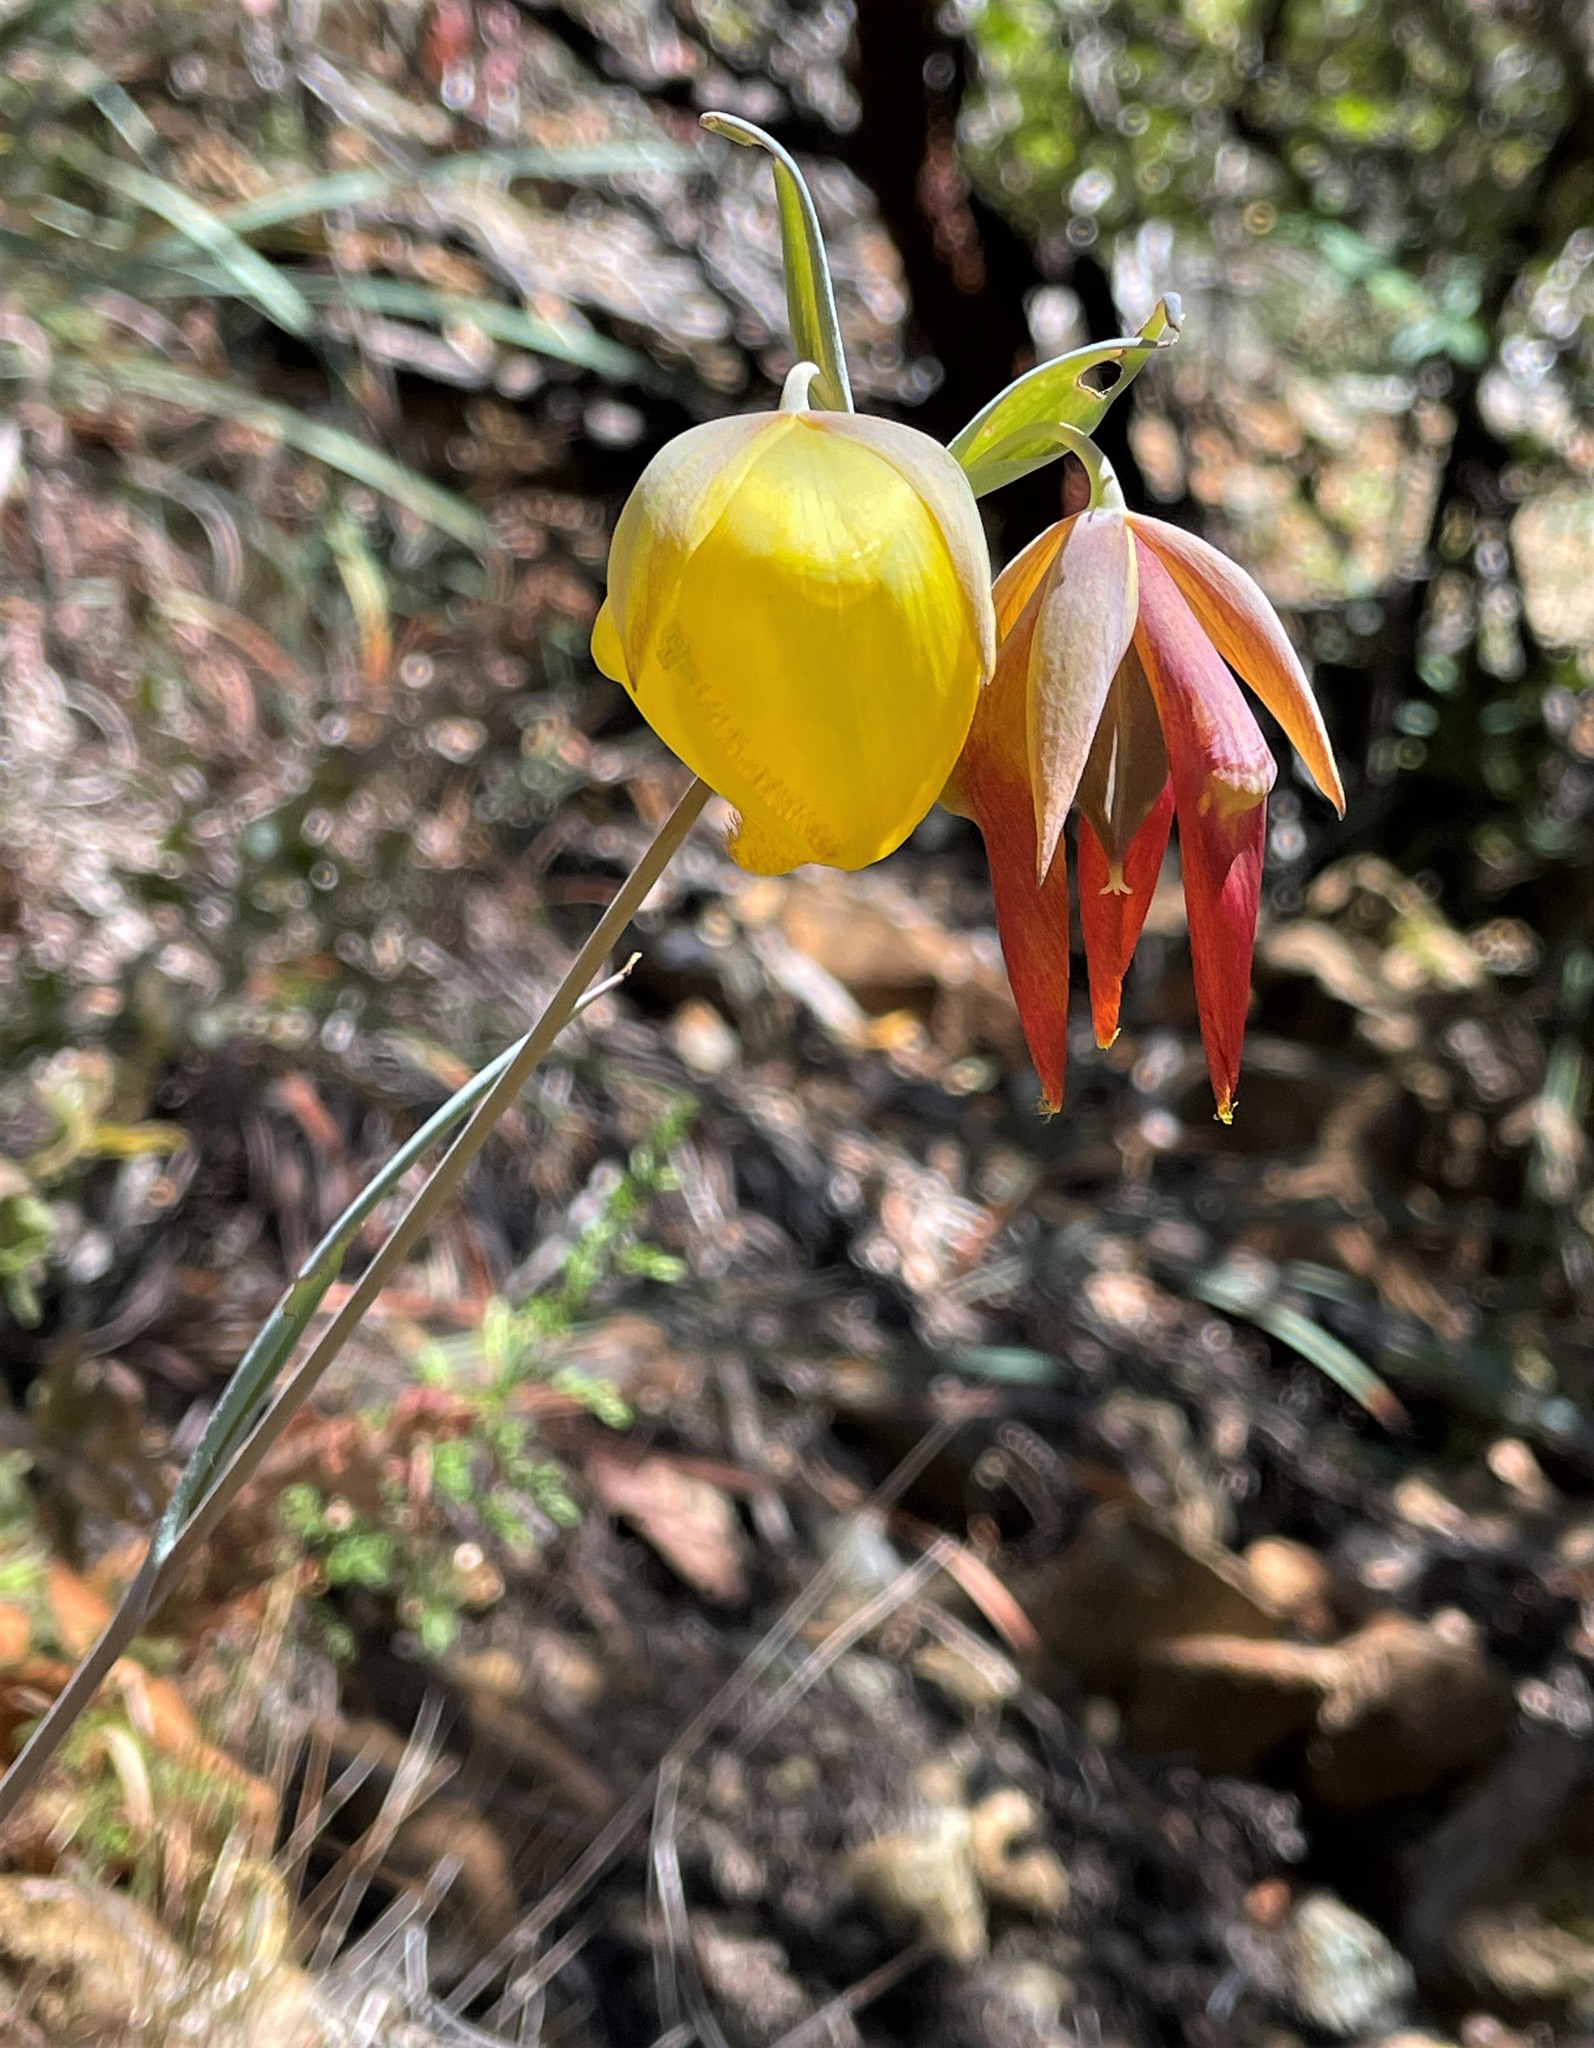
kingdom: Plantae
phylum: Tracheophyta
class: Liliopsida
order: Liliales
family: Liliaceae
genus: Calochortus
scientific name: Calochortus raichei
